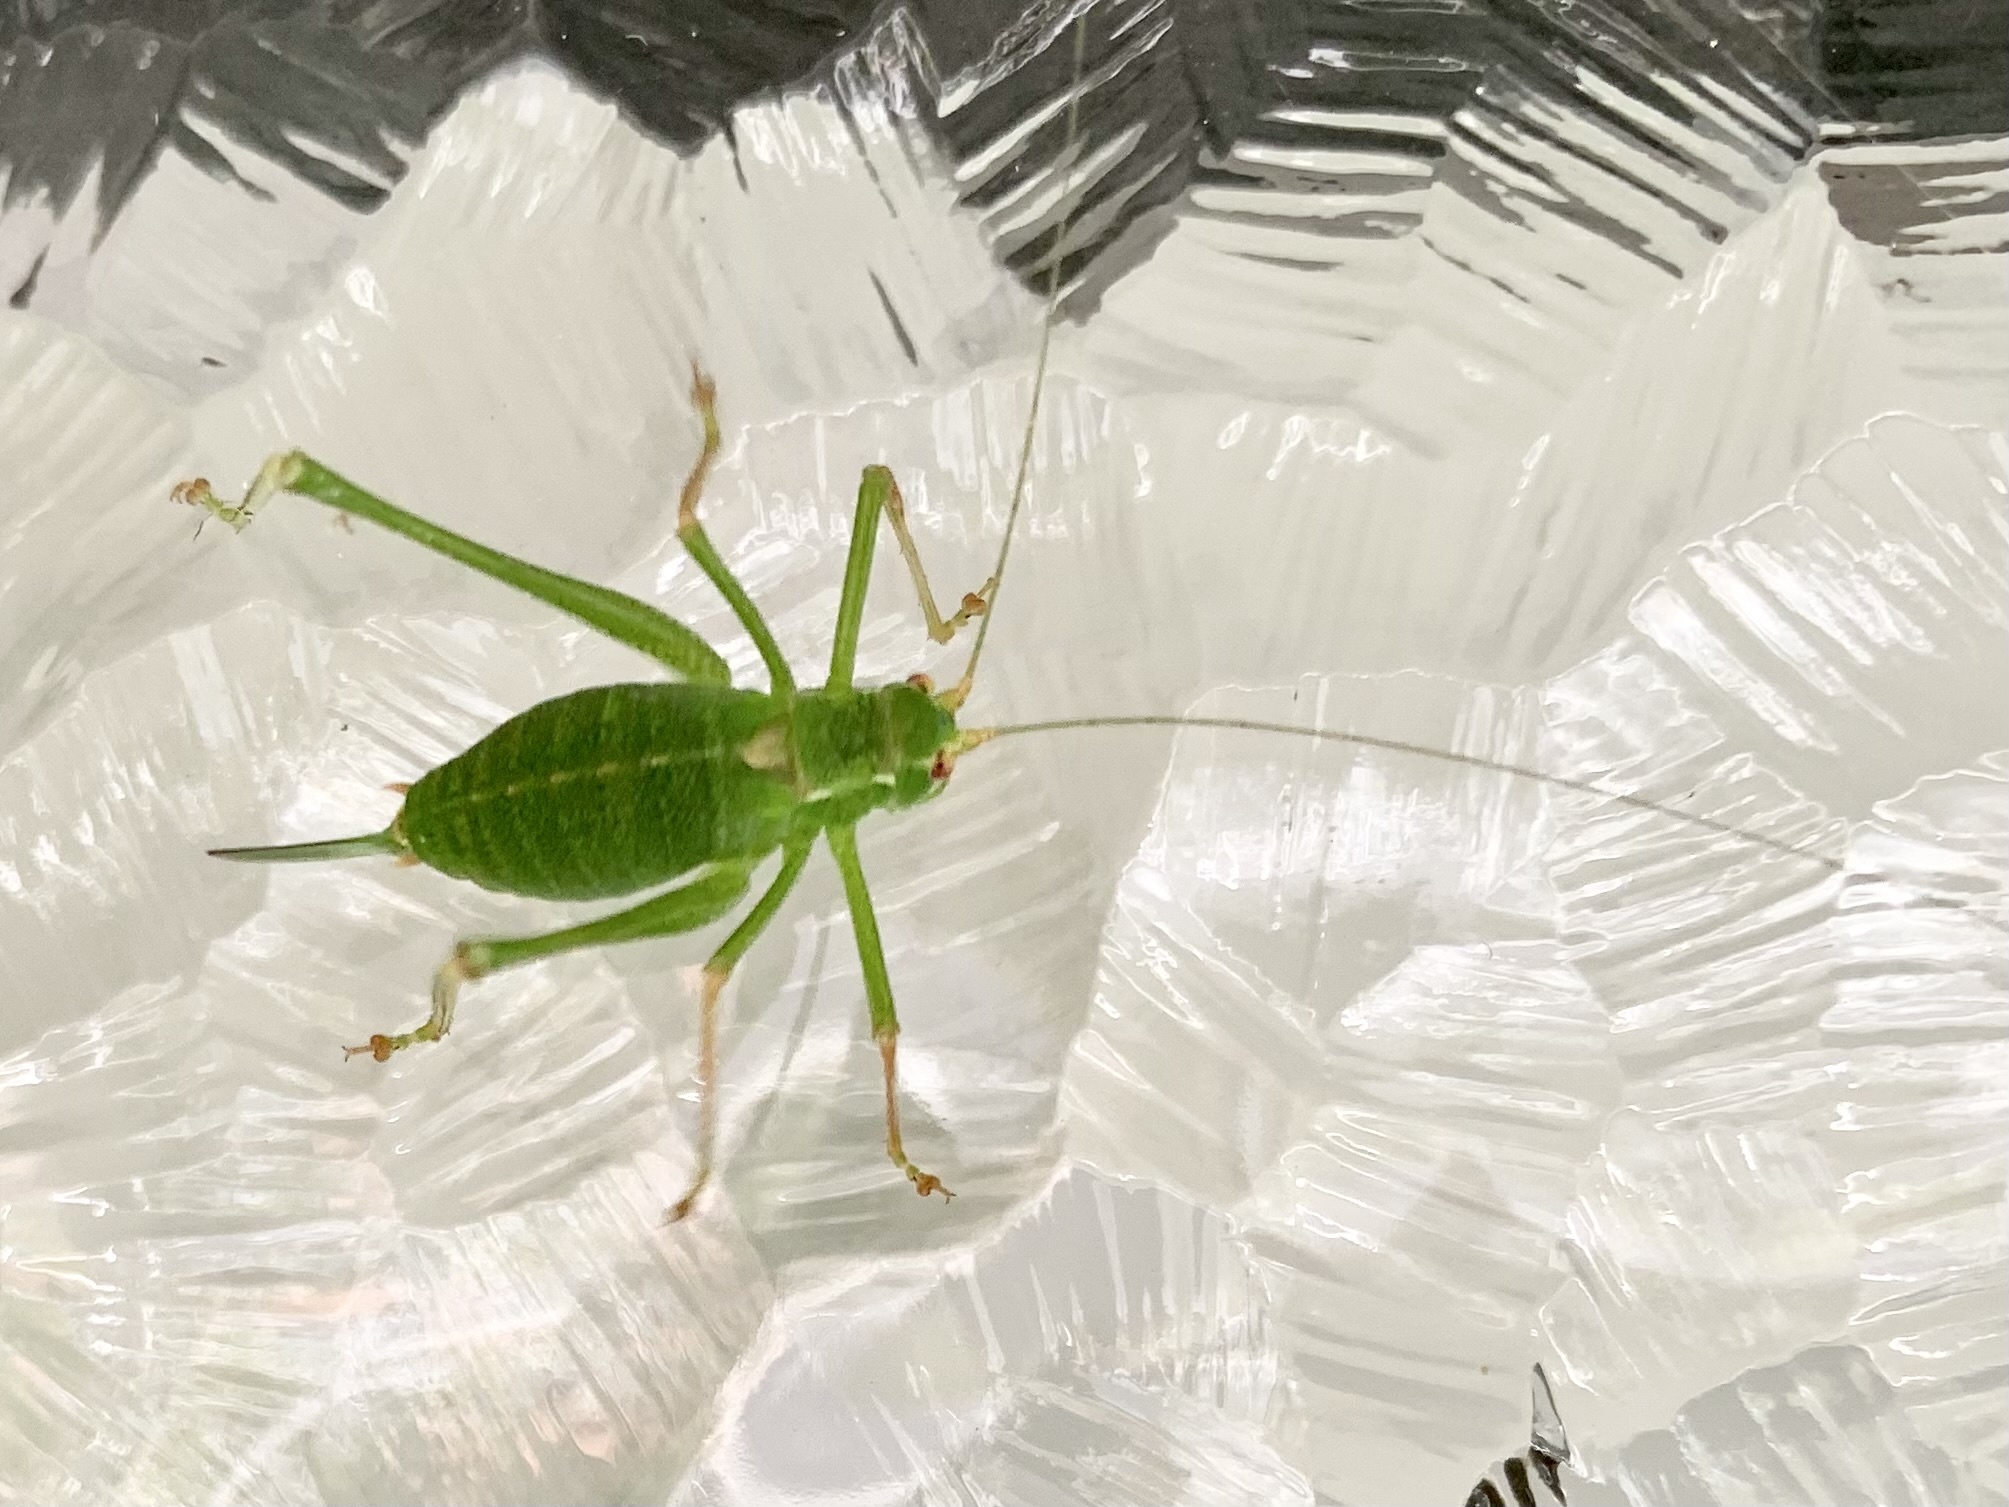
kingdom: Animalia
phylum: Arthropoda
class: Insecta
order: Orthoptera
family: Tettigoniidae
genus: Leptophyes
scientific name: Leptophyes punctatissima
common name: Speckled bush-cricket
